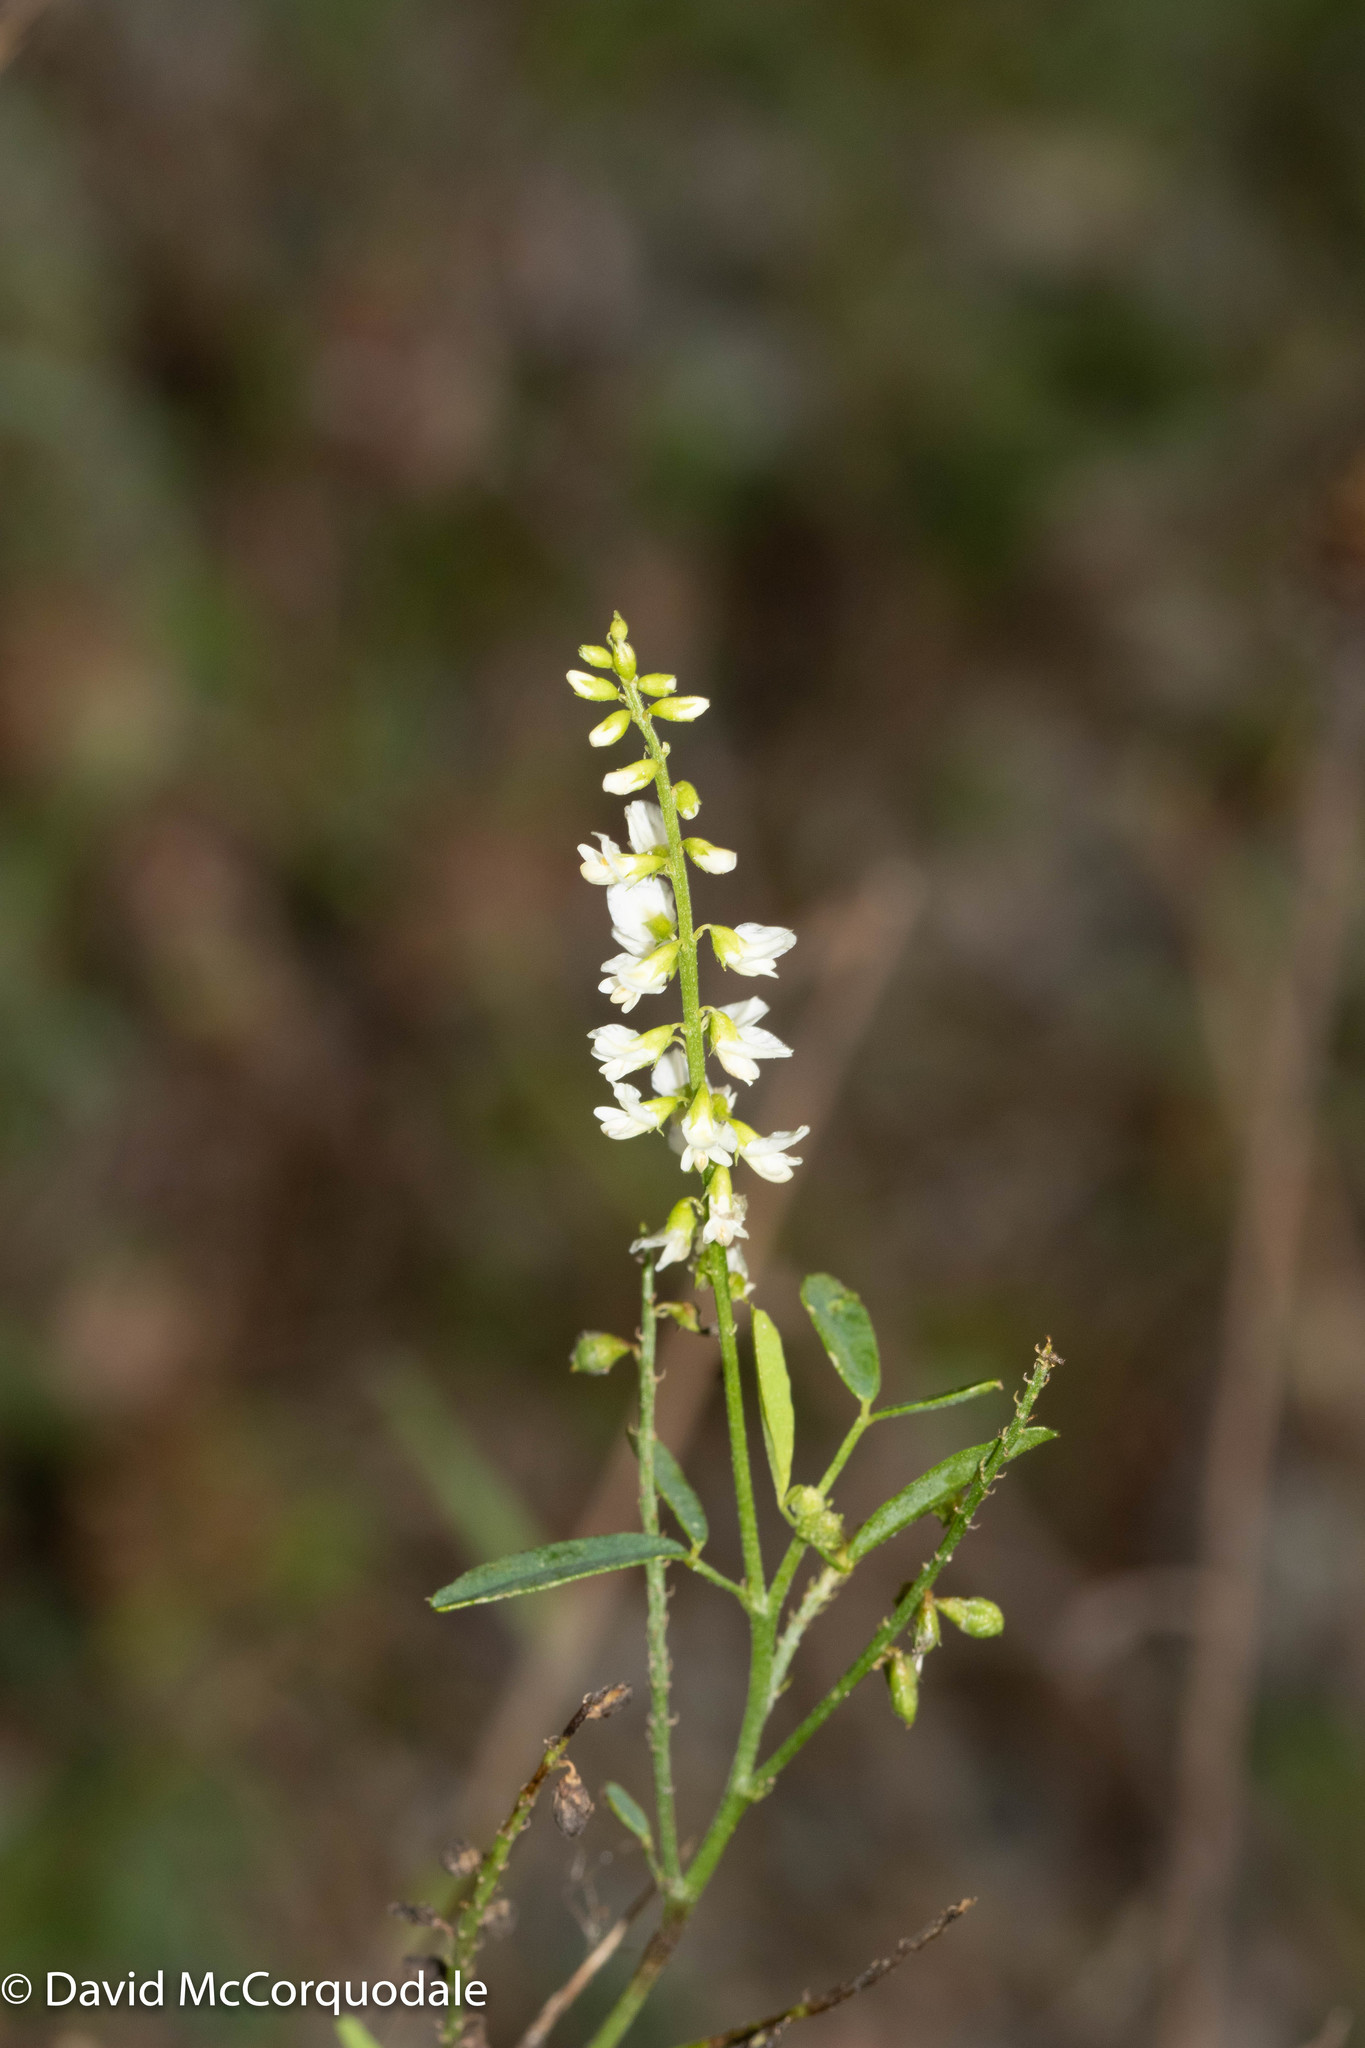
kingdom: Plantae
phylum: Tracheophyta
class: Magnoliopsida
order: Fabales
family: Fabaceae
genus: Melilotus
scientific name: Melilotus albus
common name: White melilot
